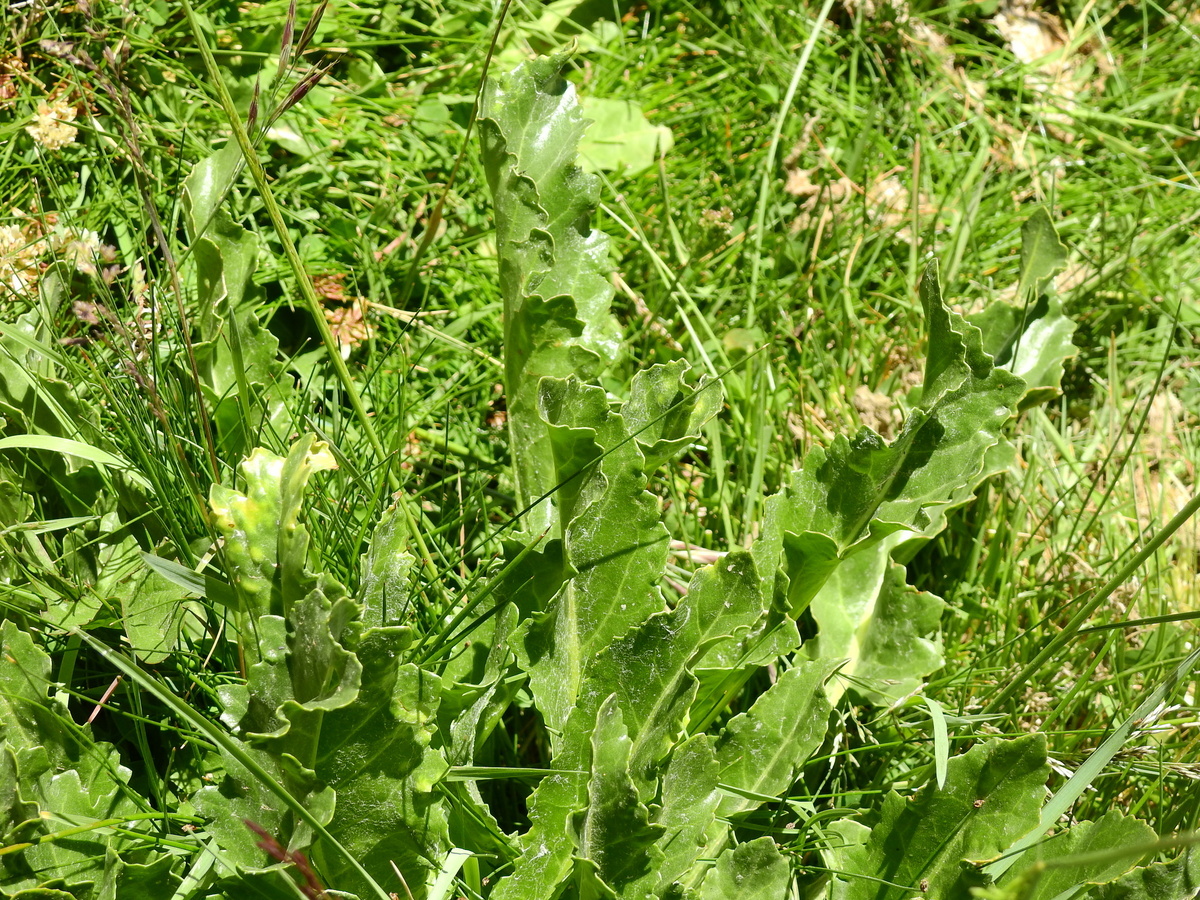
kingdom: Plantae
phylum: Tracheophyta
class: Magnoliopsida
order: Asterales
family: Asteraceae
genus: Senecio
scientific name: Senecio fistulosus
